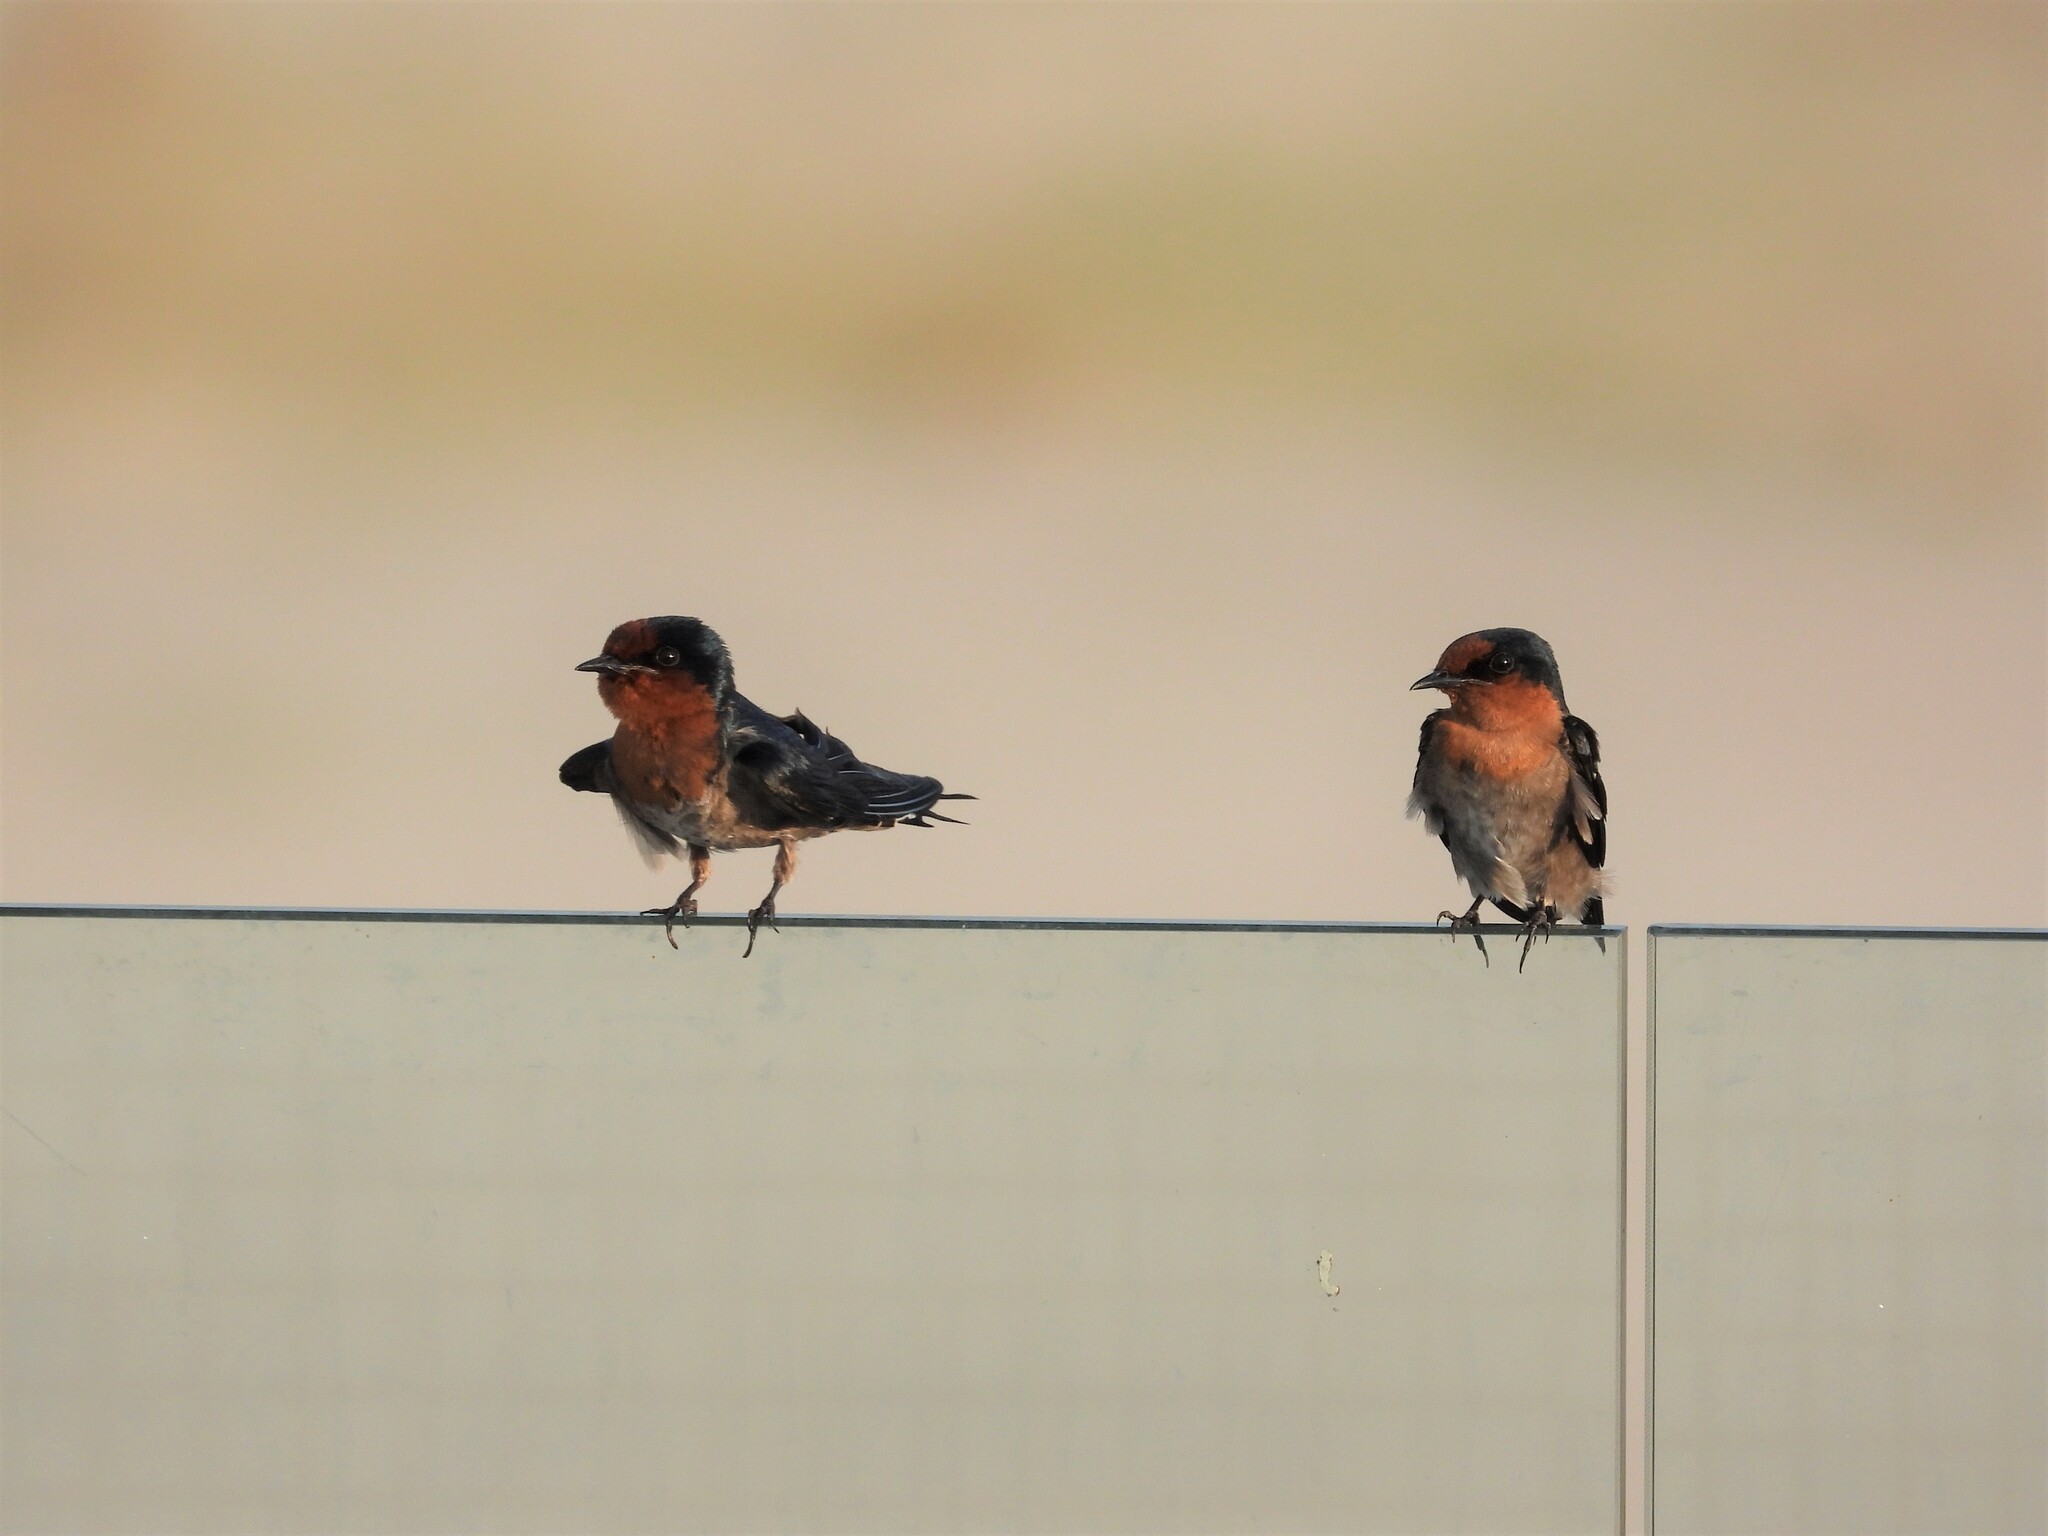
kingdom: Animalia
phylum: Chordata
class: Aves
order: Passeriformes
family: Hirundinidae
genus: Hirundo
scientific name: Hirundo tahitica
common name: Pacific swallow
